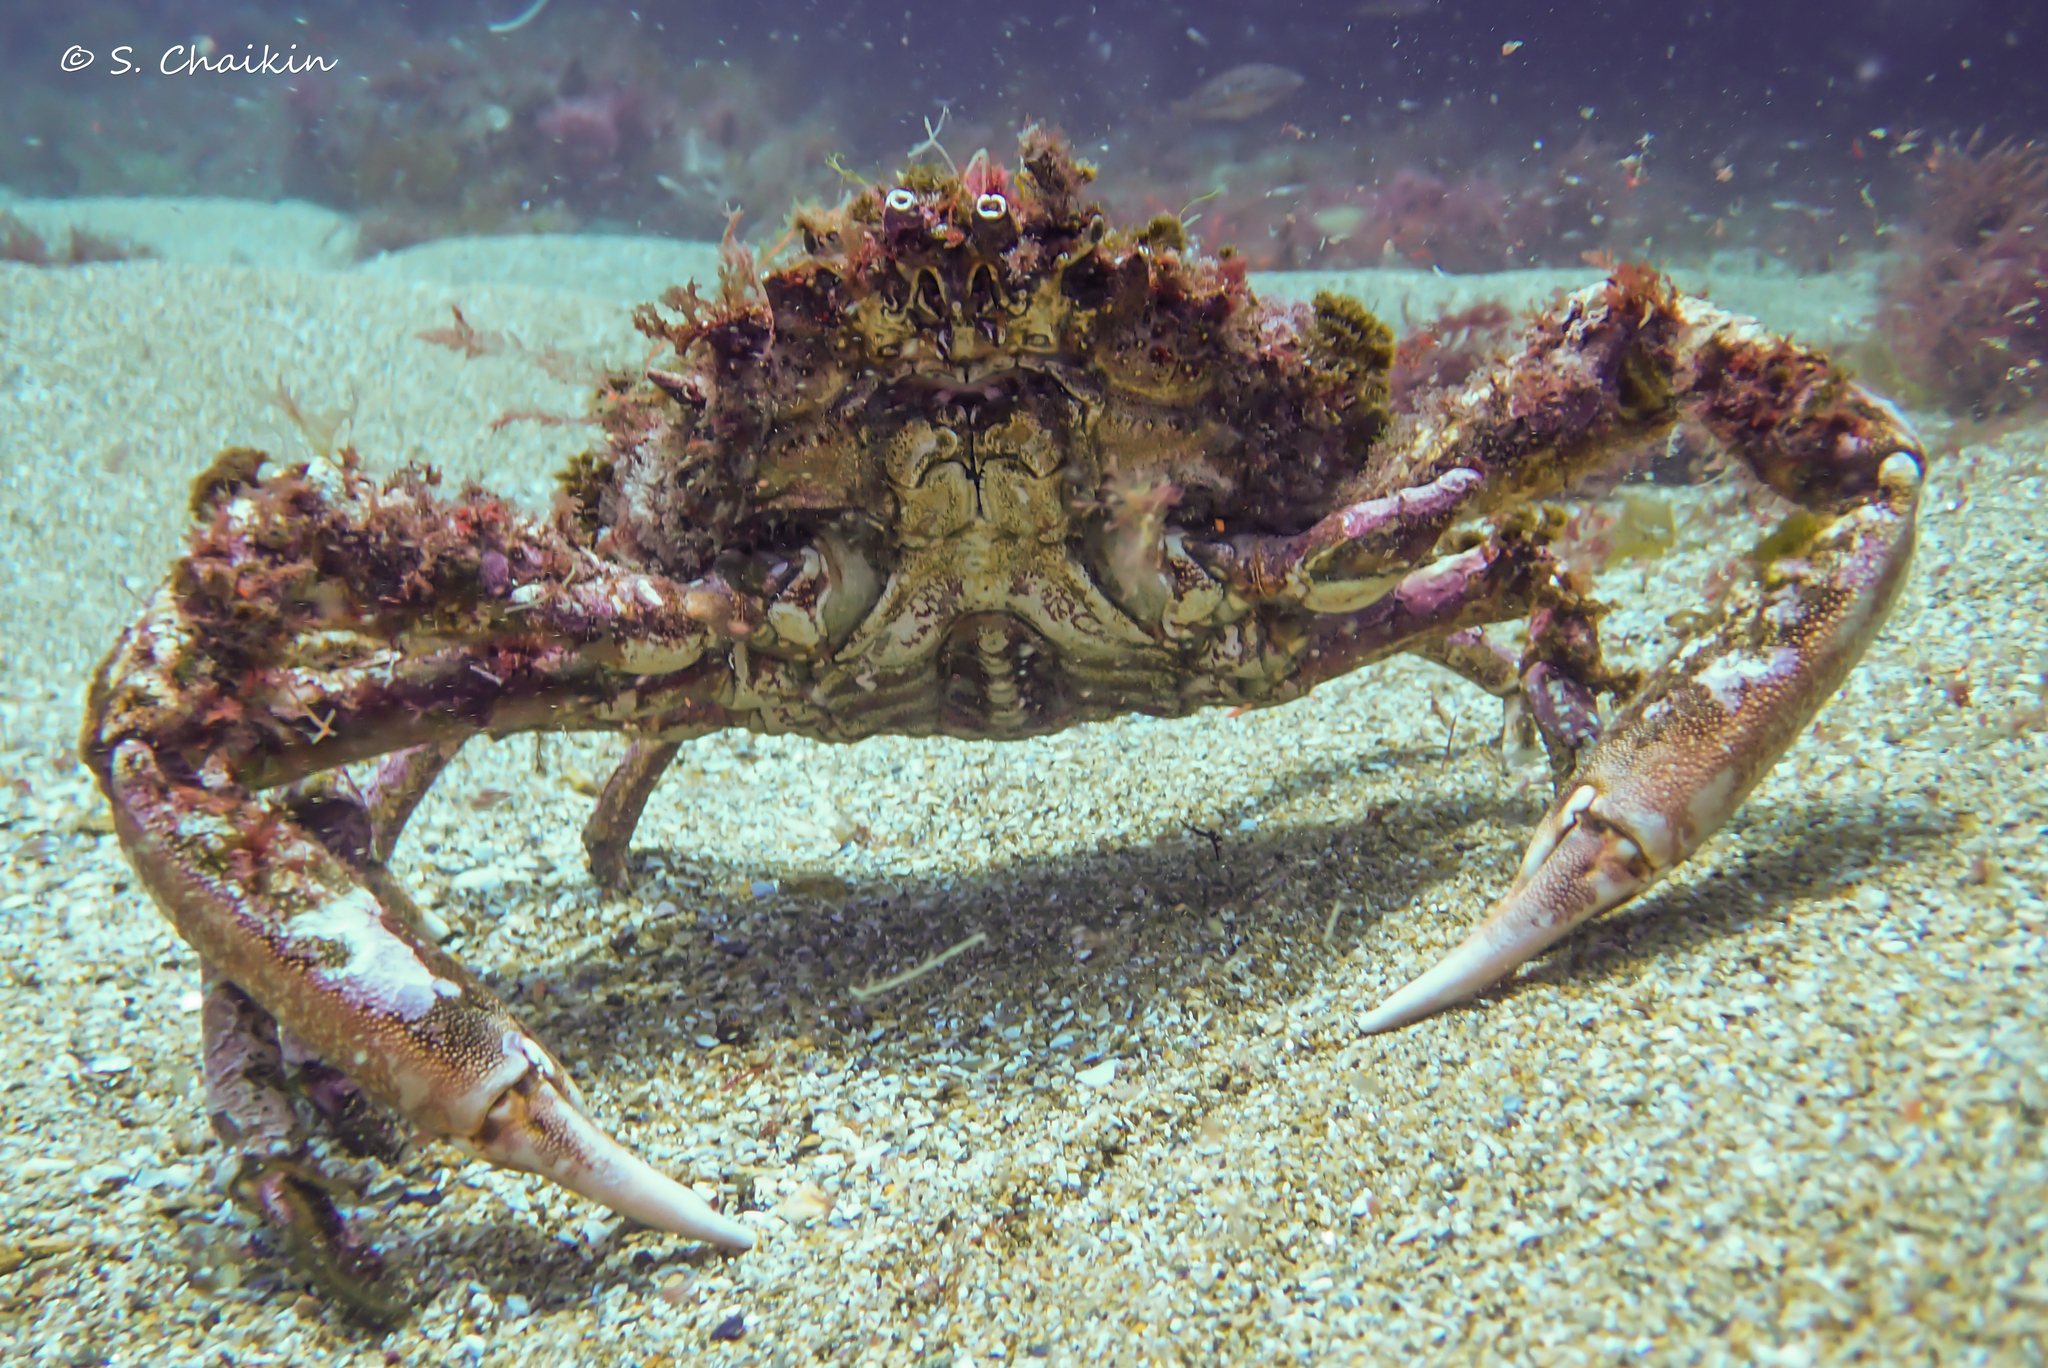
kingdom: Animalia
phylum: Arthropoda
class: Malacostraca
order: Decapoda
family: Majidae
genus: Maja
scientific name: Maja brachydactyla
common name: Common spider crab
